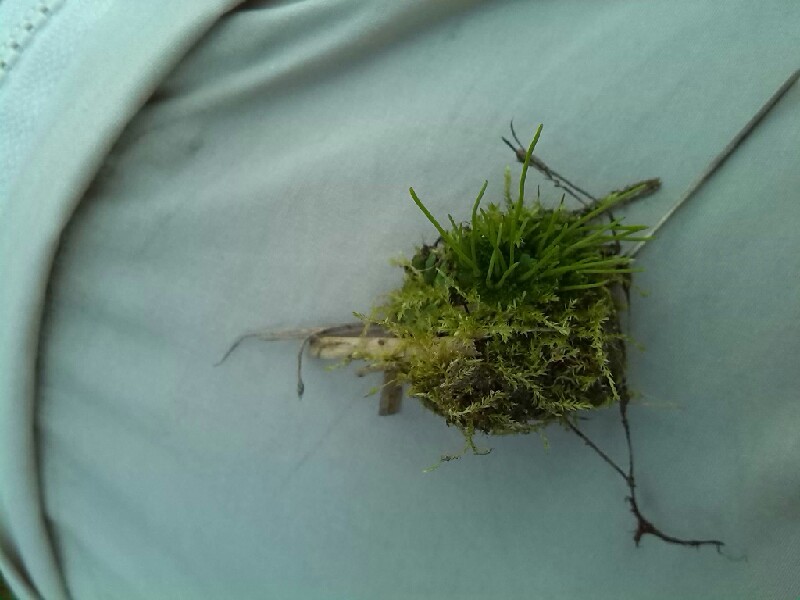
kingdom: Plantae
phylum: Anthocerotophyta
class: Anthocerotopsida
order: Notothyladales
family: Notothyladaceae
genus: Phaeoceros
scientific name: Phaeoceros carolinianus
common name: Carolina hornwort
